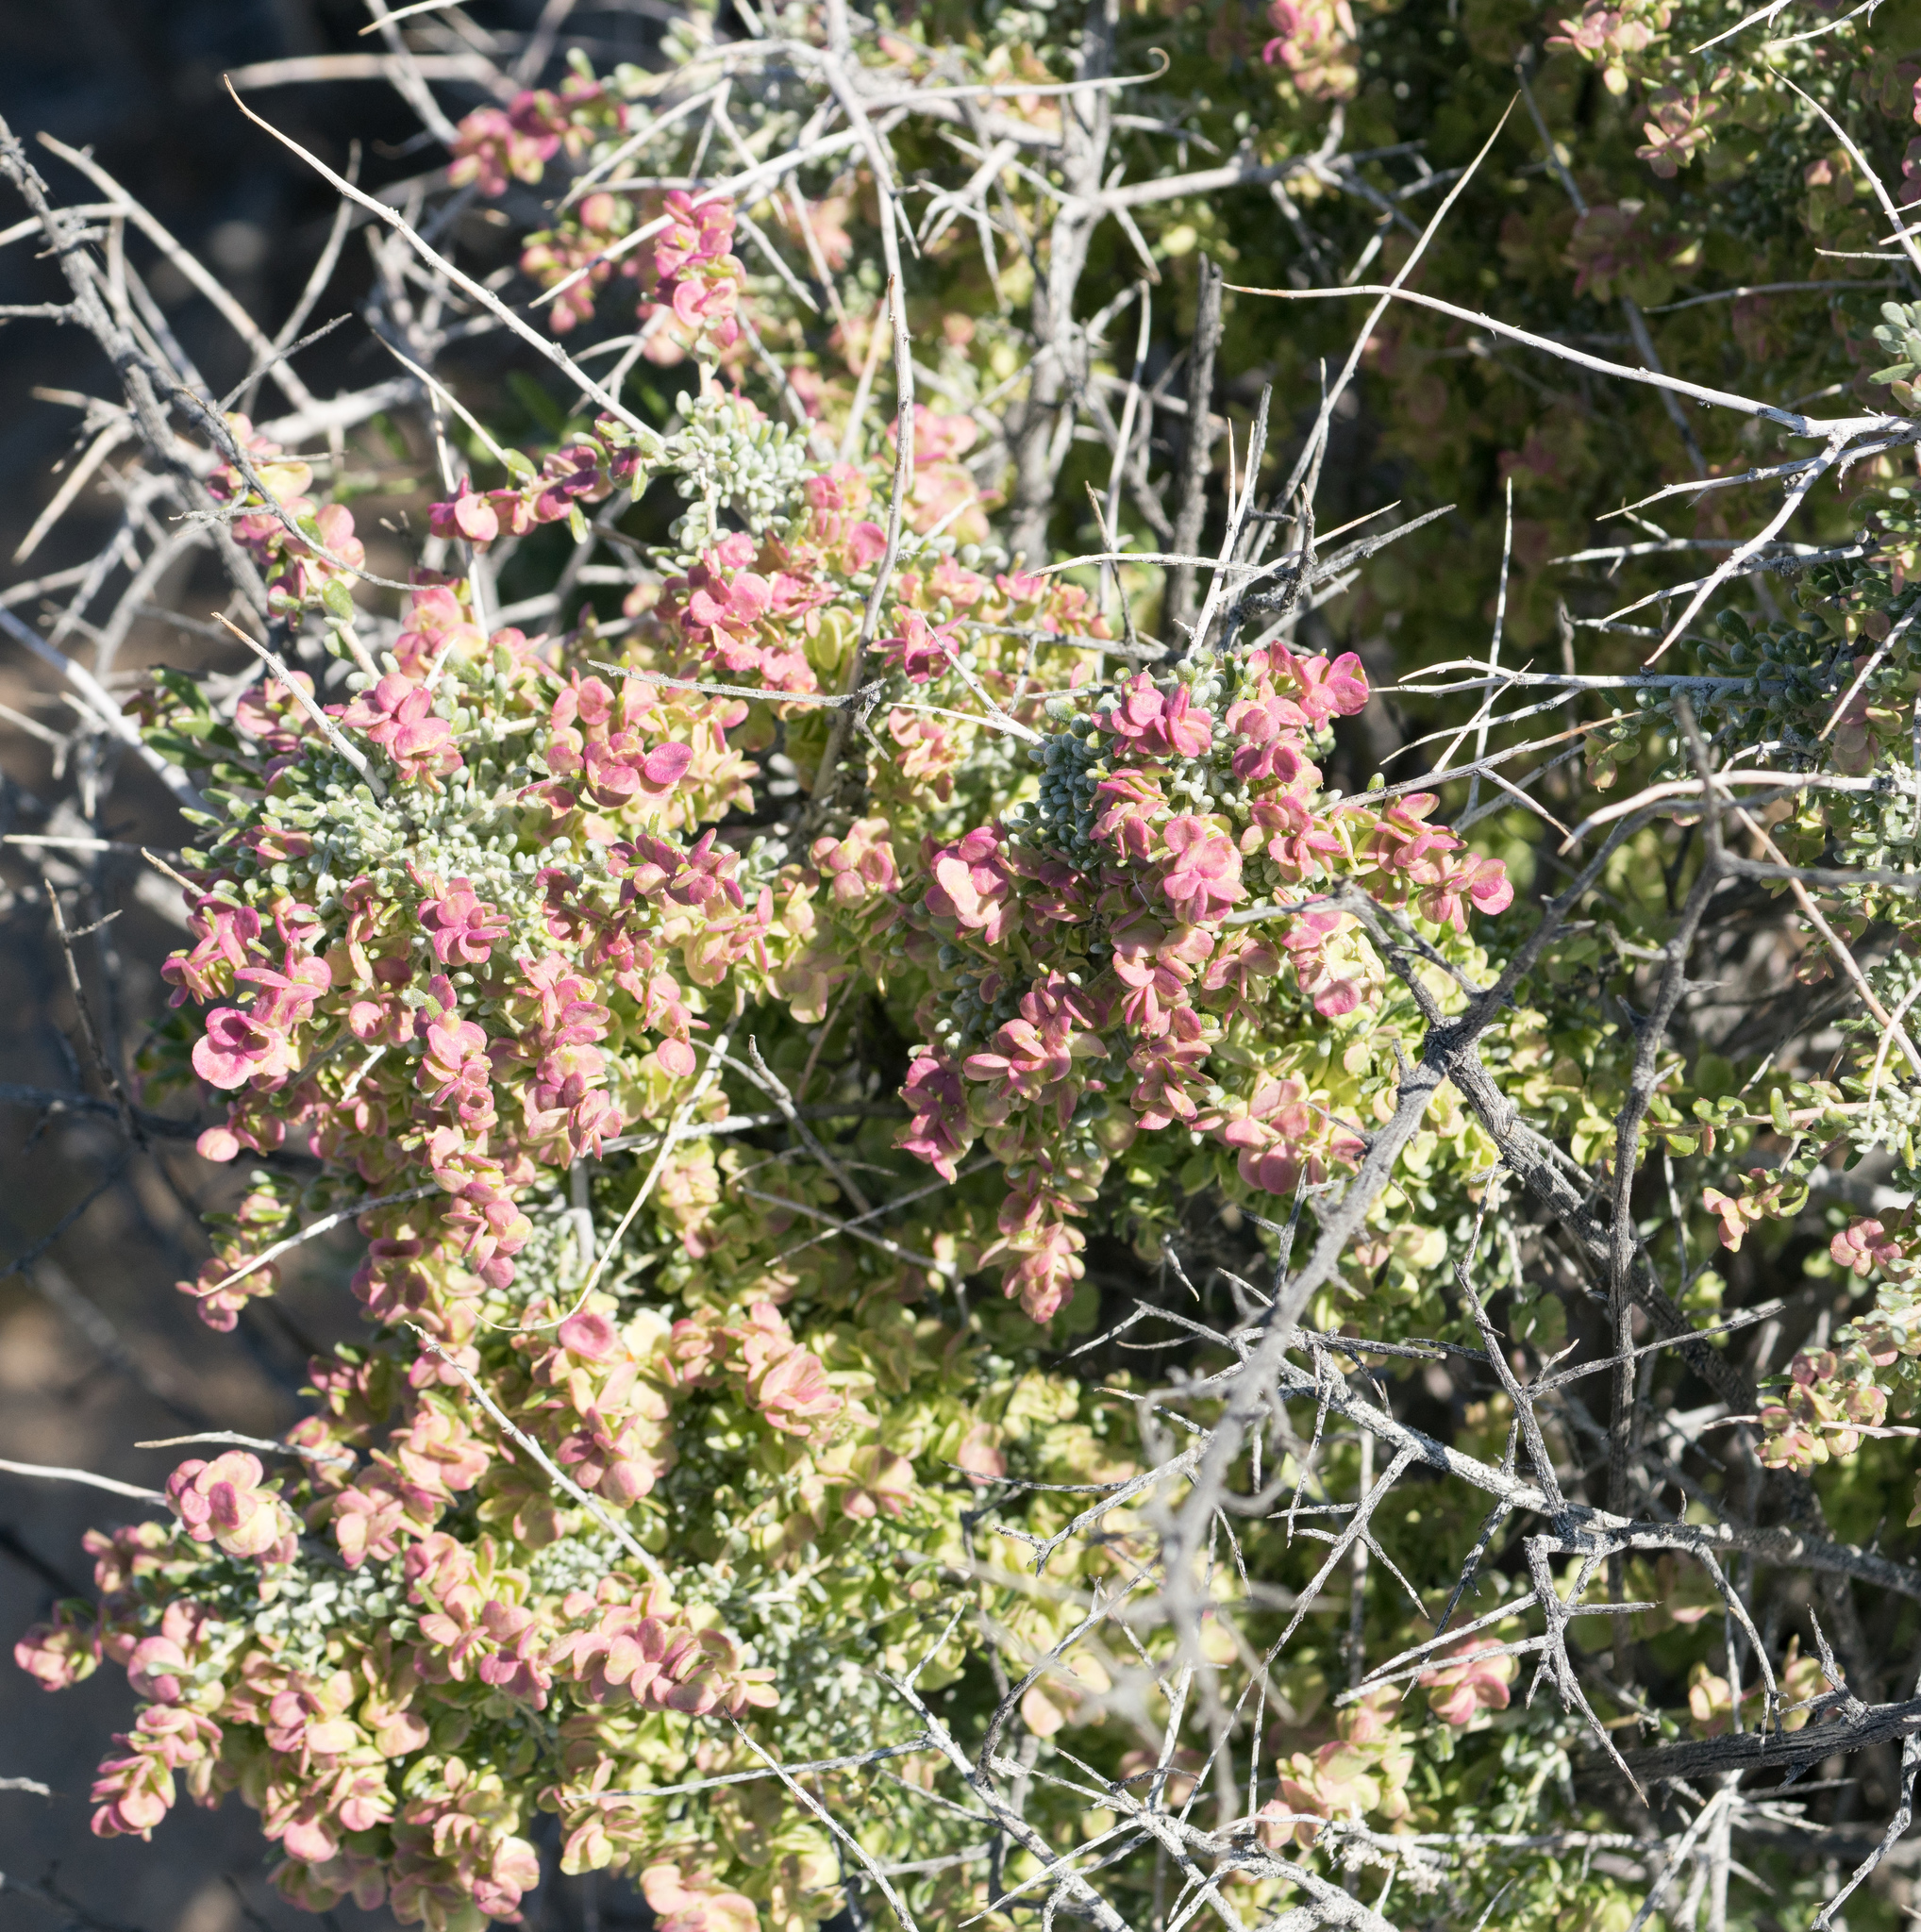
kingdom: Plantae
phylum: Tracheophyta
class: Magnoliopsida
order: Caryophyllales
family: Amaranthaceae
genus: Grayia
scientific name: Grayia spinosa
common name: Spiny hopsage
